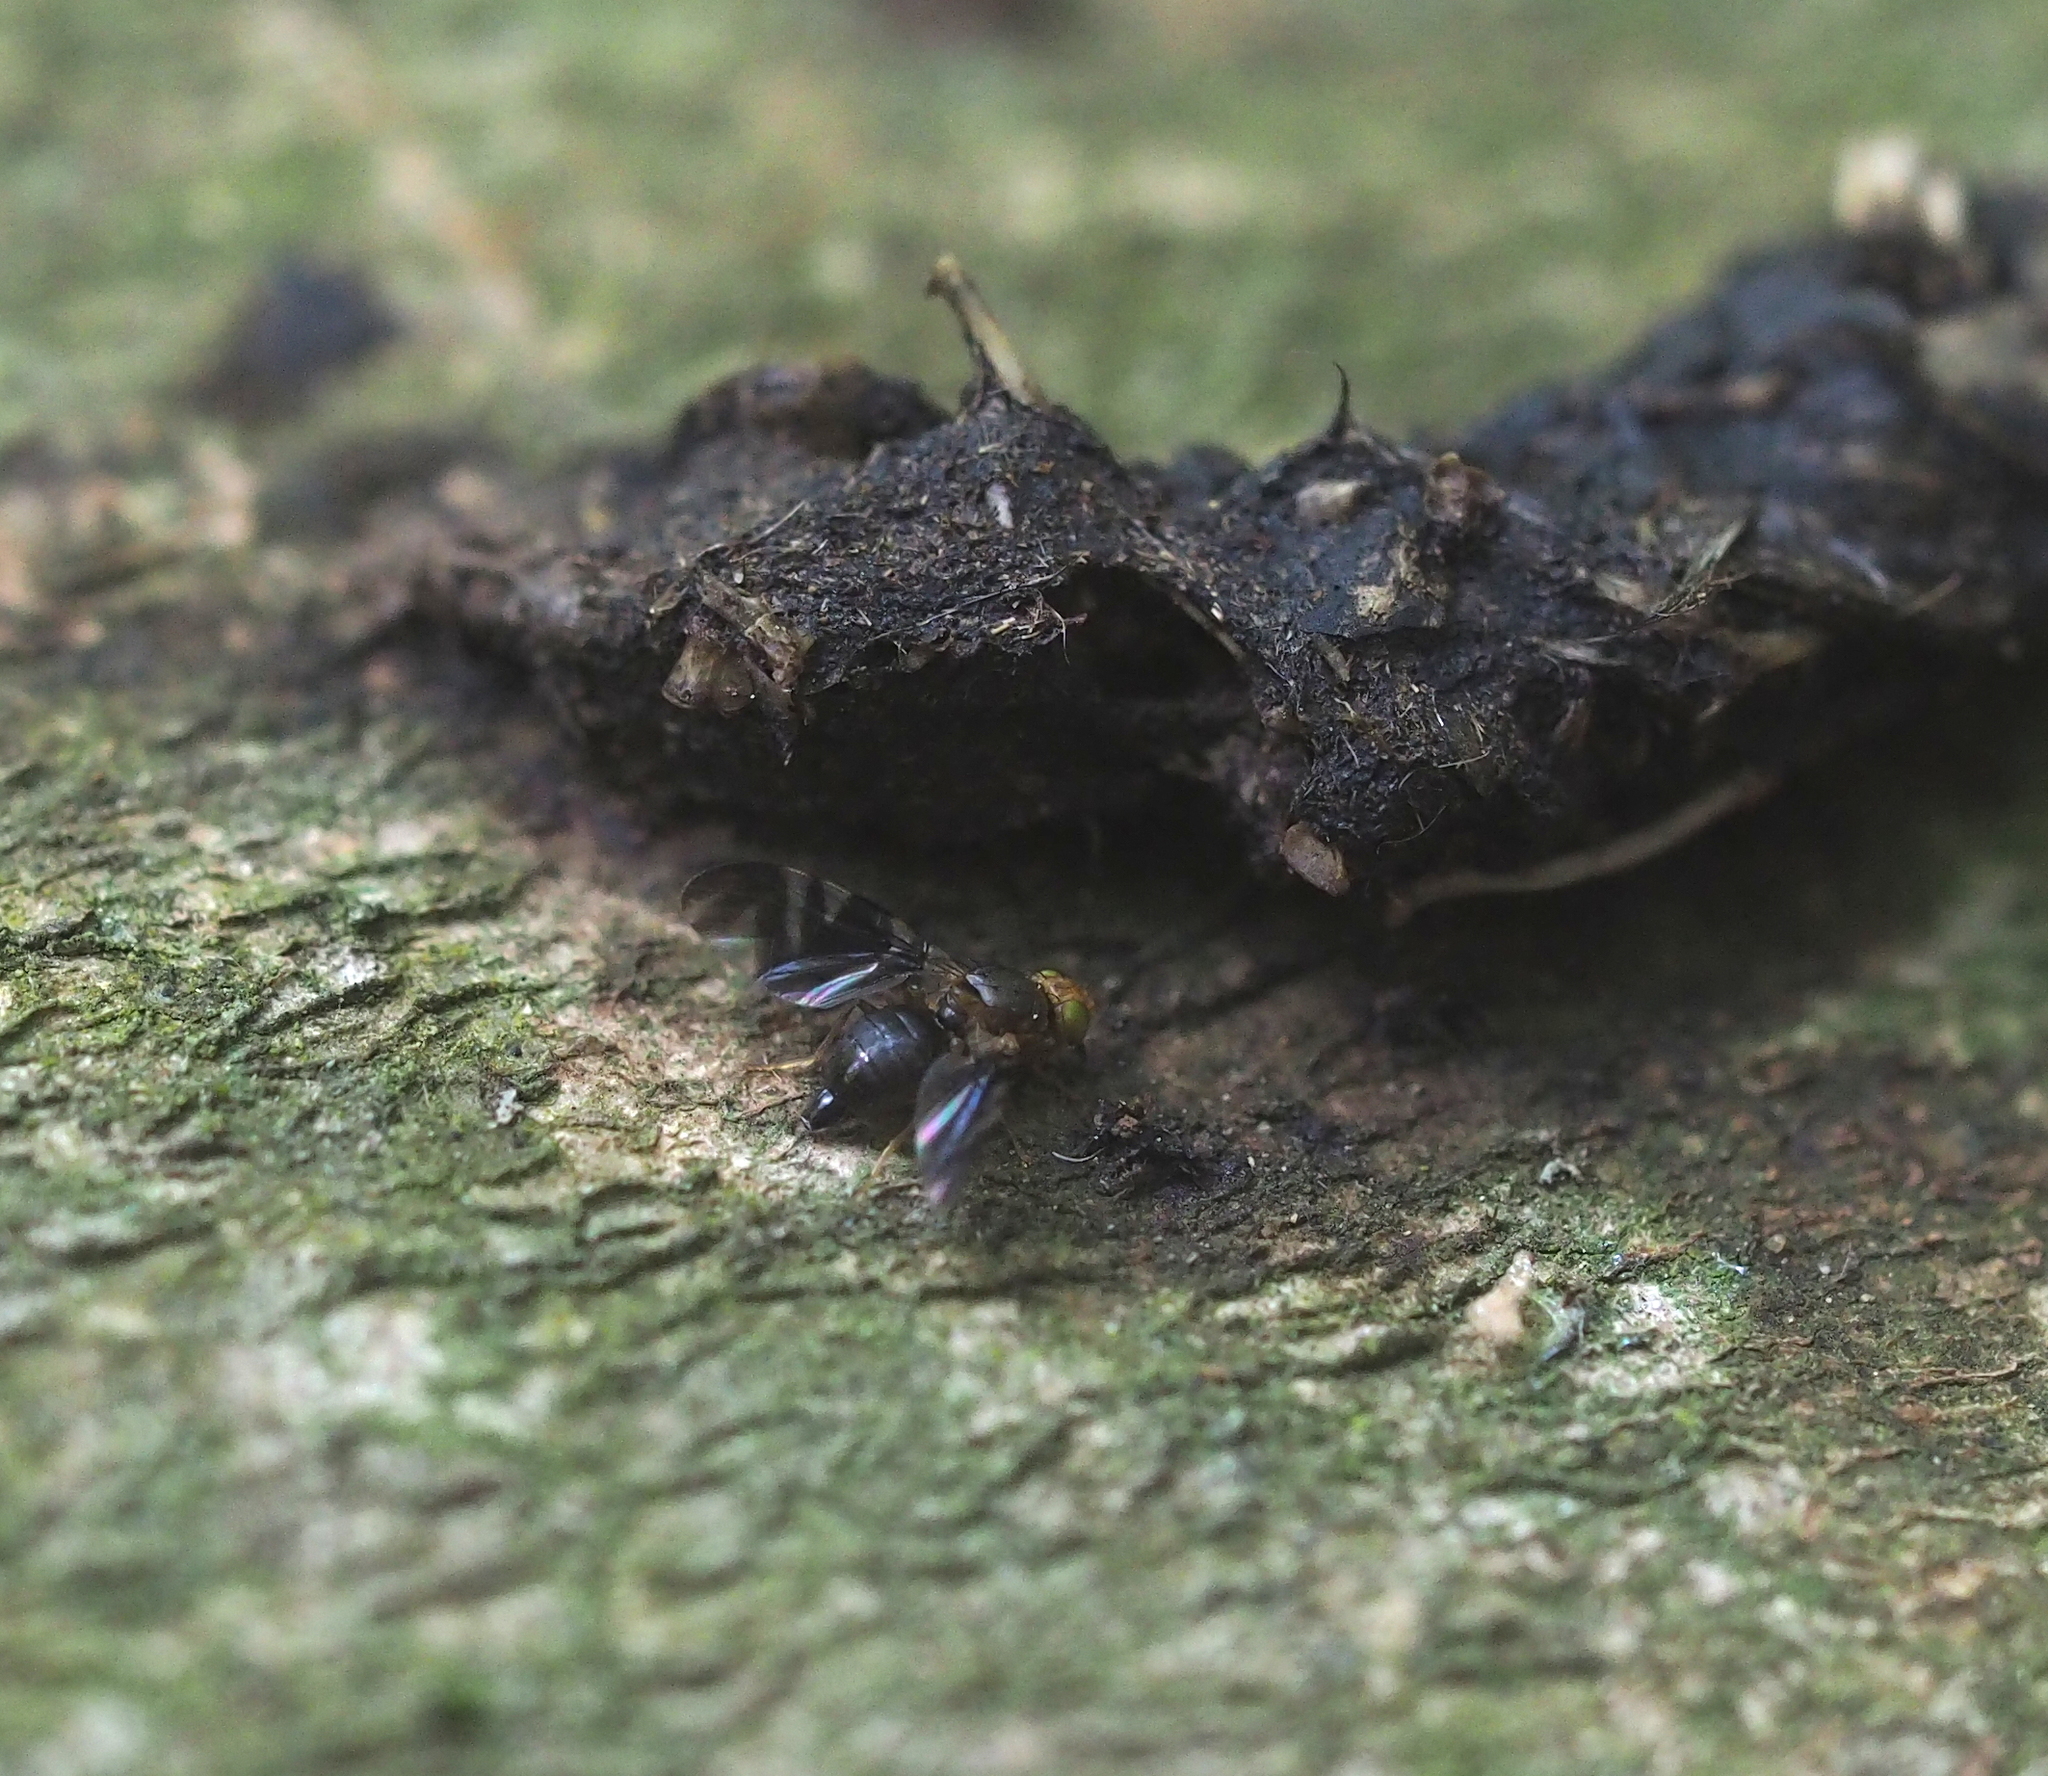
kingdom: Animalia
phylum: Arthropoda
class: Insecta
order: Diptera
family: Tephritidae
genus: Philophylla
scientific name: Philophylla caesio
